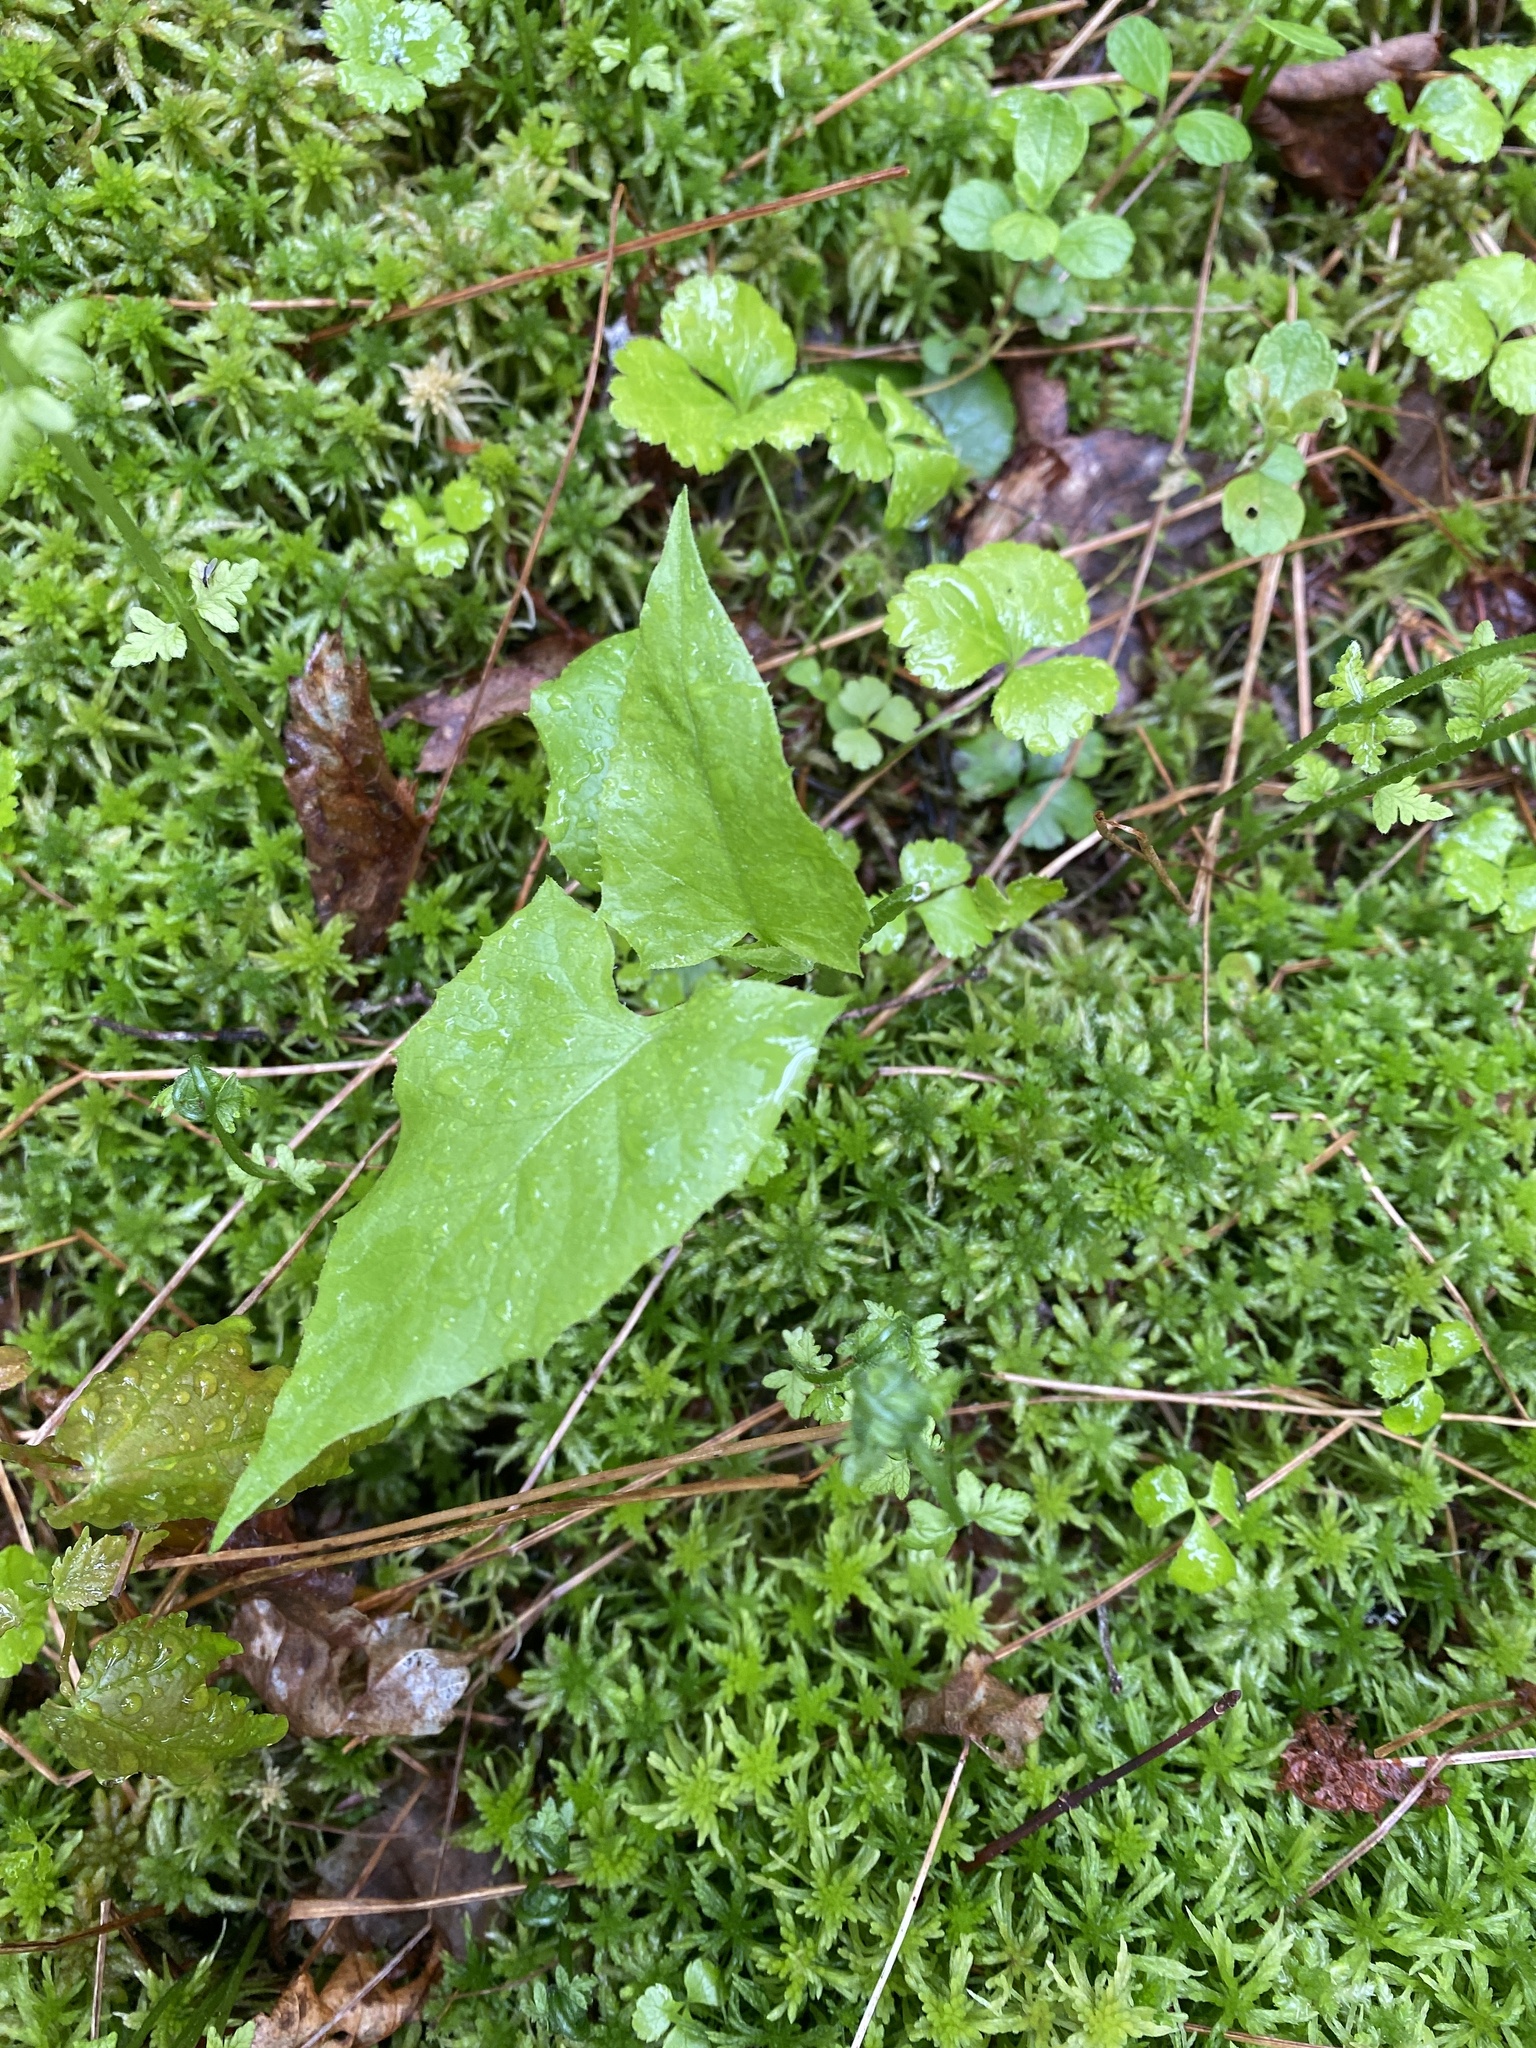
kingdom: Plantae
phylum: Tracheophyta
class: Magnoliopsida
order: Asterales
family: Asteraceae
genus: Nabalus
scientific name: Nabalus altissima
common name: Tall rattlesnakeroot
